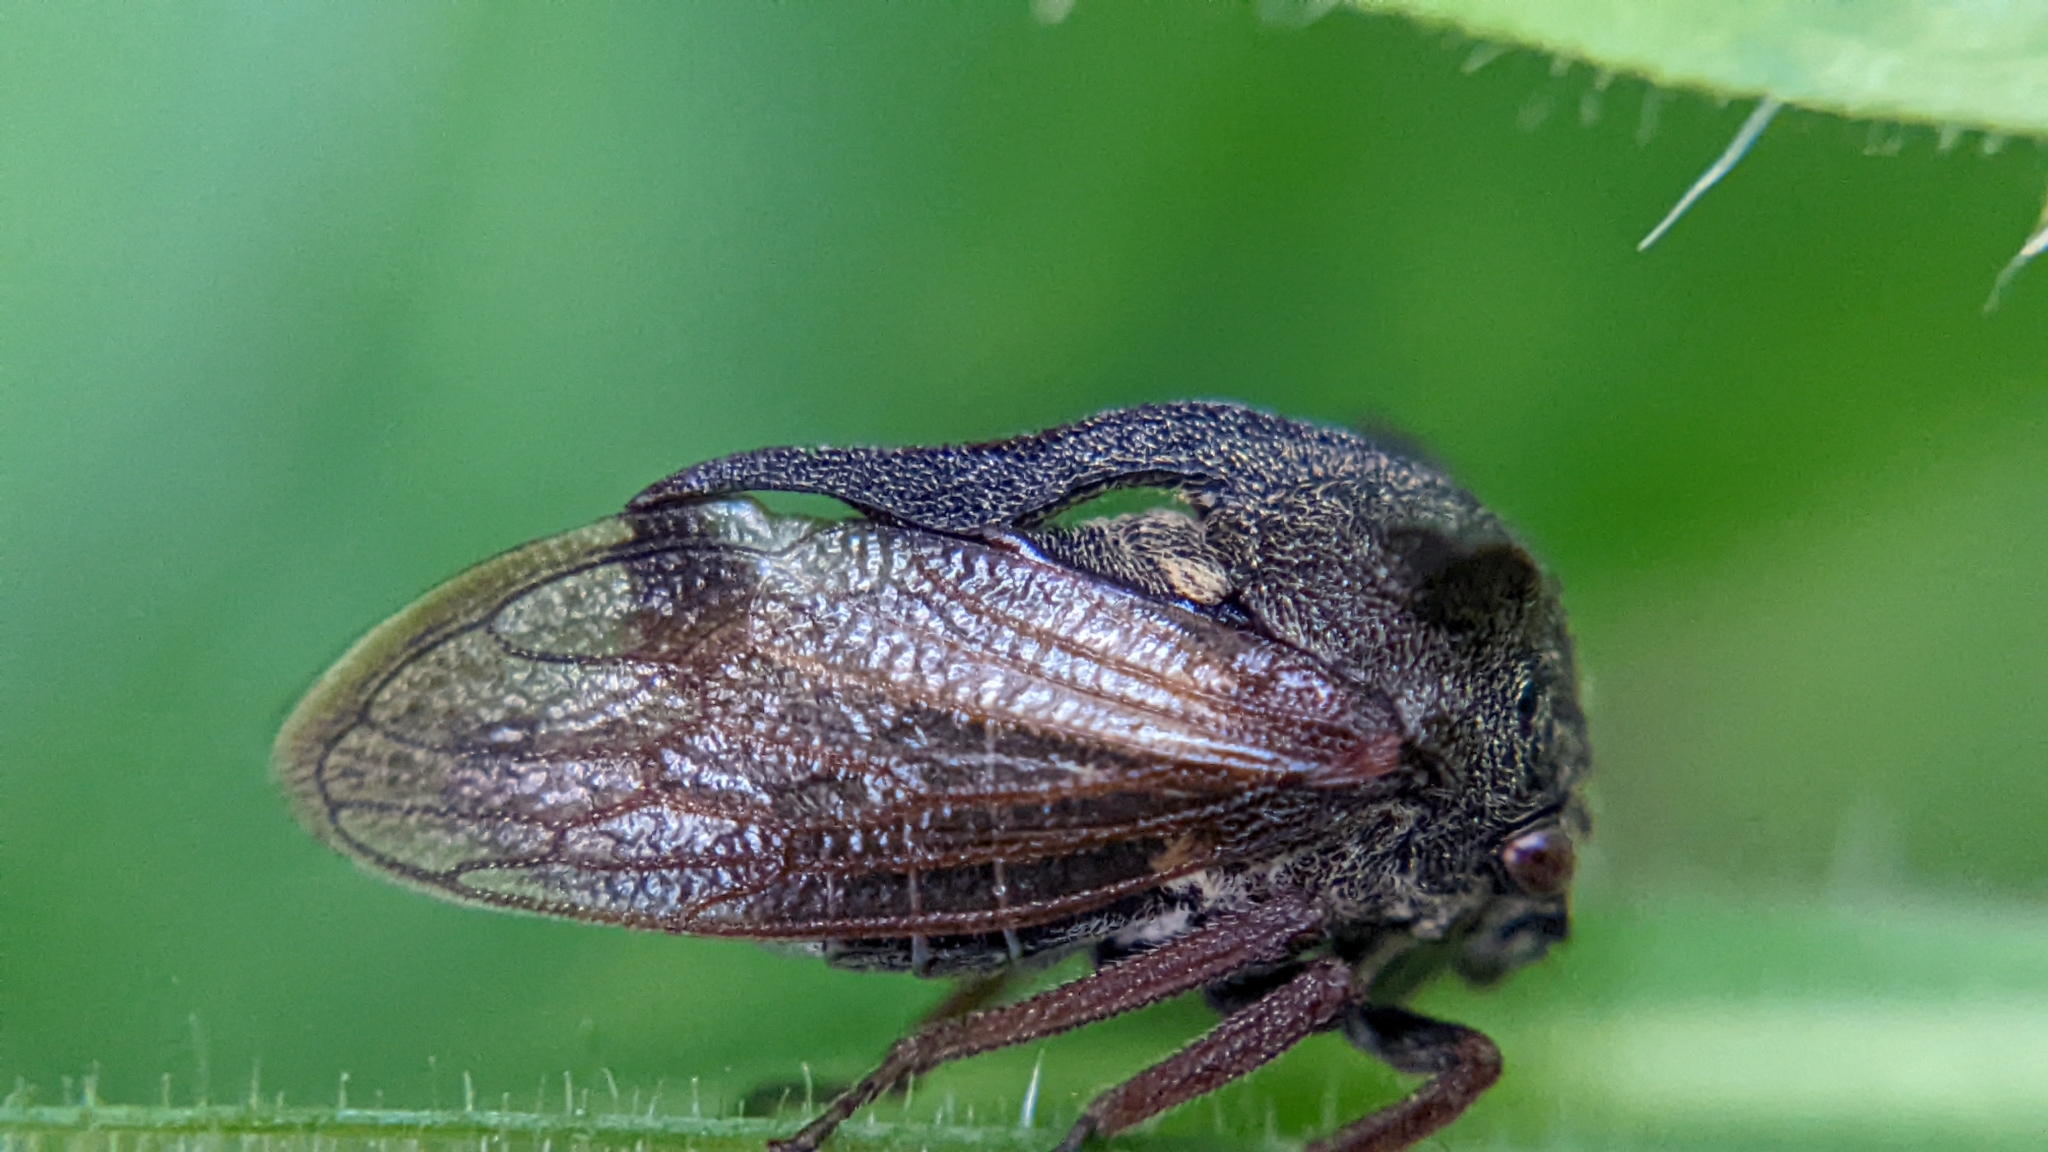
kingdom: Animalia
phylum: Arthropoda
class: Insecta
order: Hemiptera
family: Membracidae
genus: Centrotus
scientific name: Centrotus cornuta
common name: Treehopper
